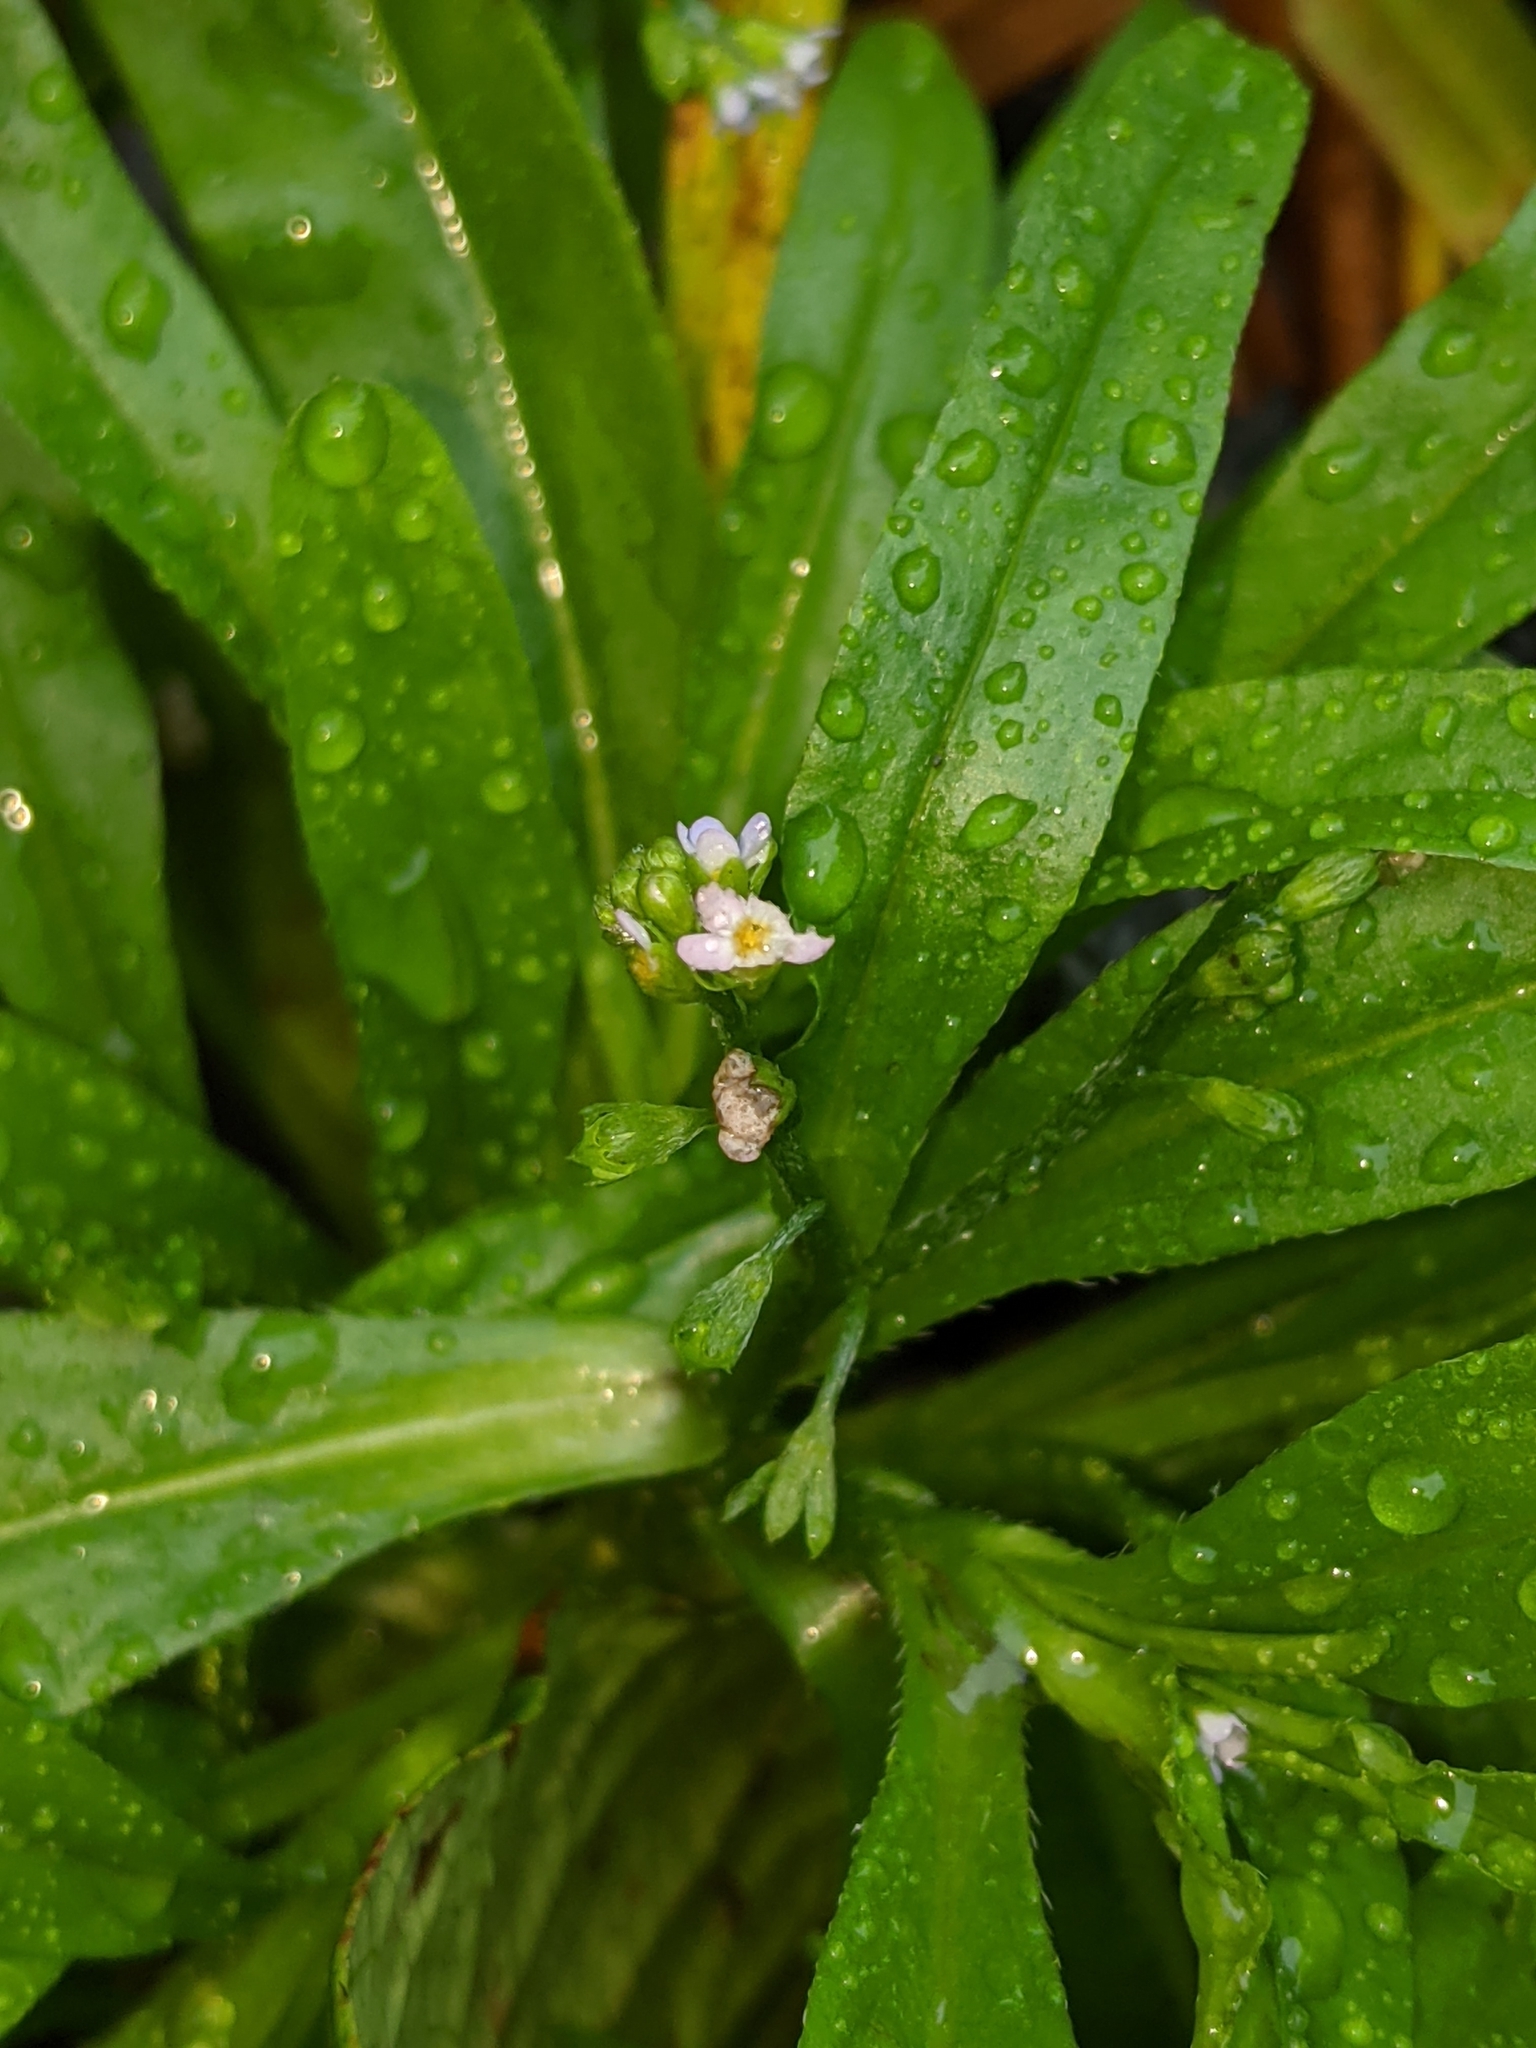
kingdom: Plantae
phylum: Tracheophyta
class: Magnoliopsida
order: Boraginales
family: Boraginaceae
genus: Myosotis
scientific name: Myosotis laxa
